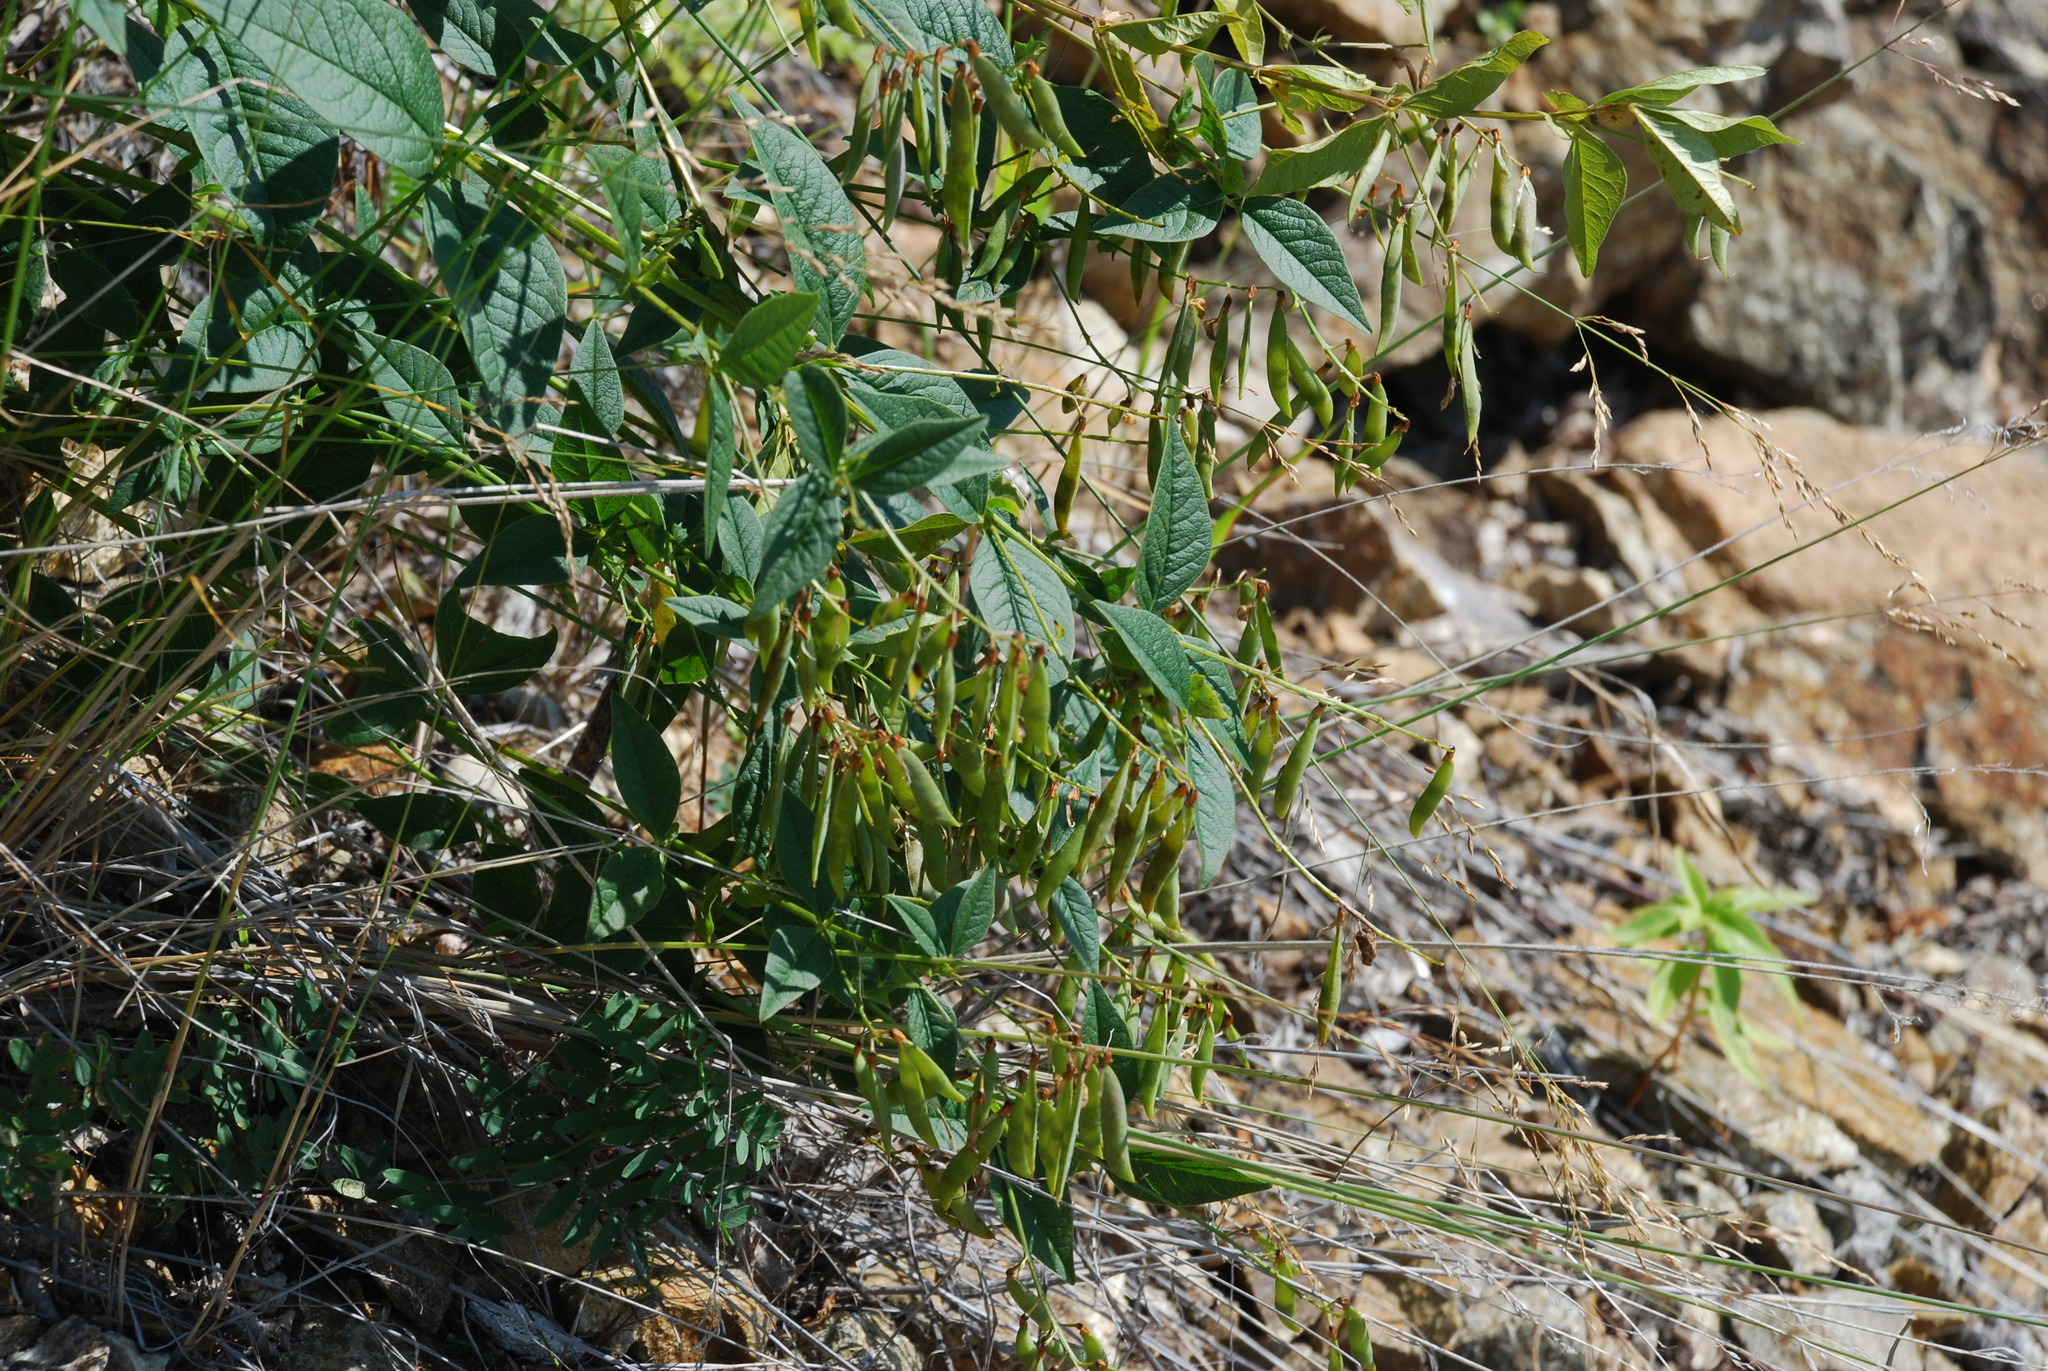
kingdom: Plantae
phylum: Tracheophyta
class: Magnoliopsida
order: Fabales
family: Fabaceae
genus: Vicia
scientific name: Vicia unijuga
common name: Two-leaf vetch
